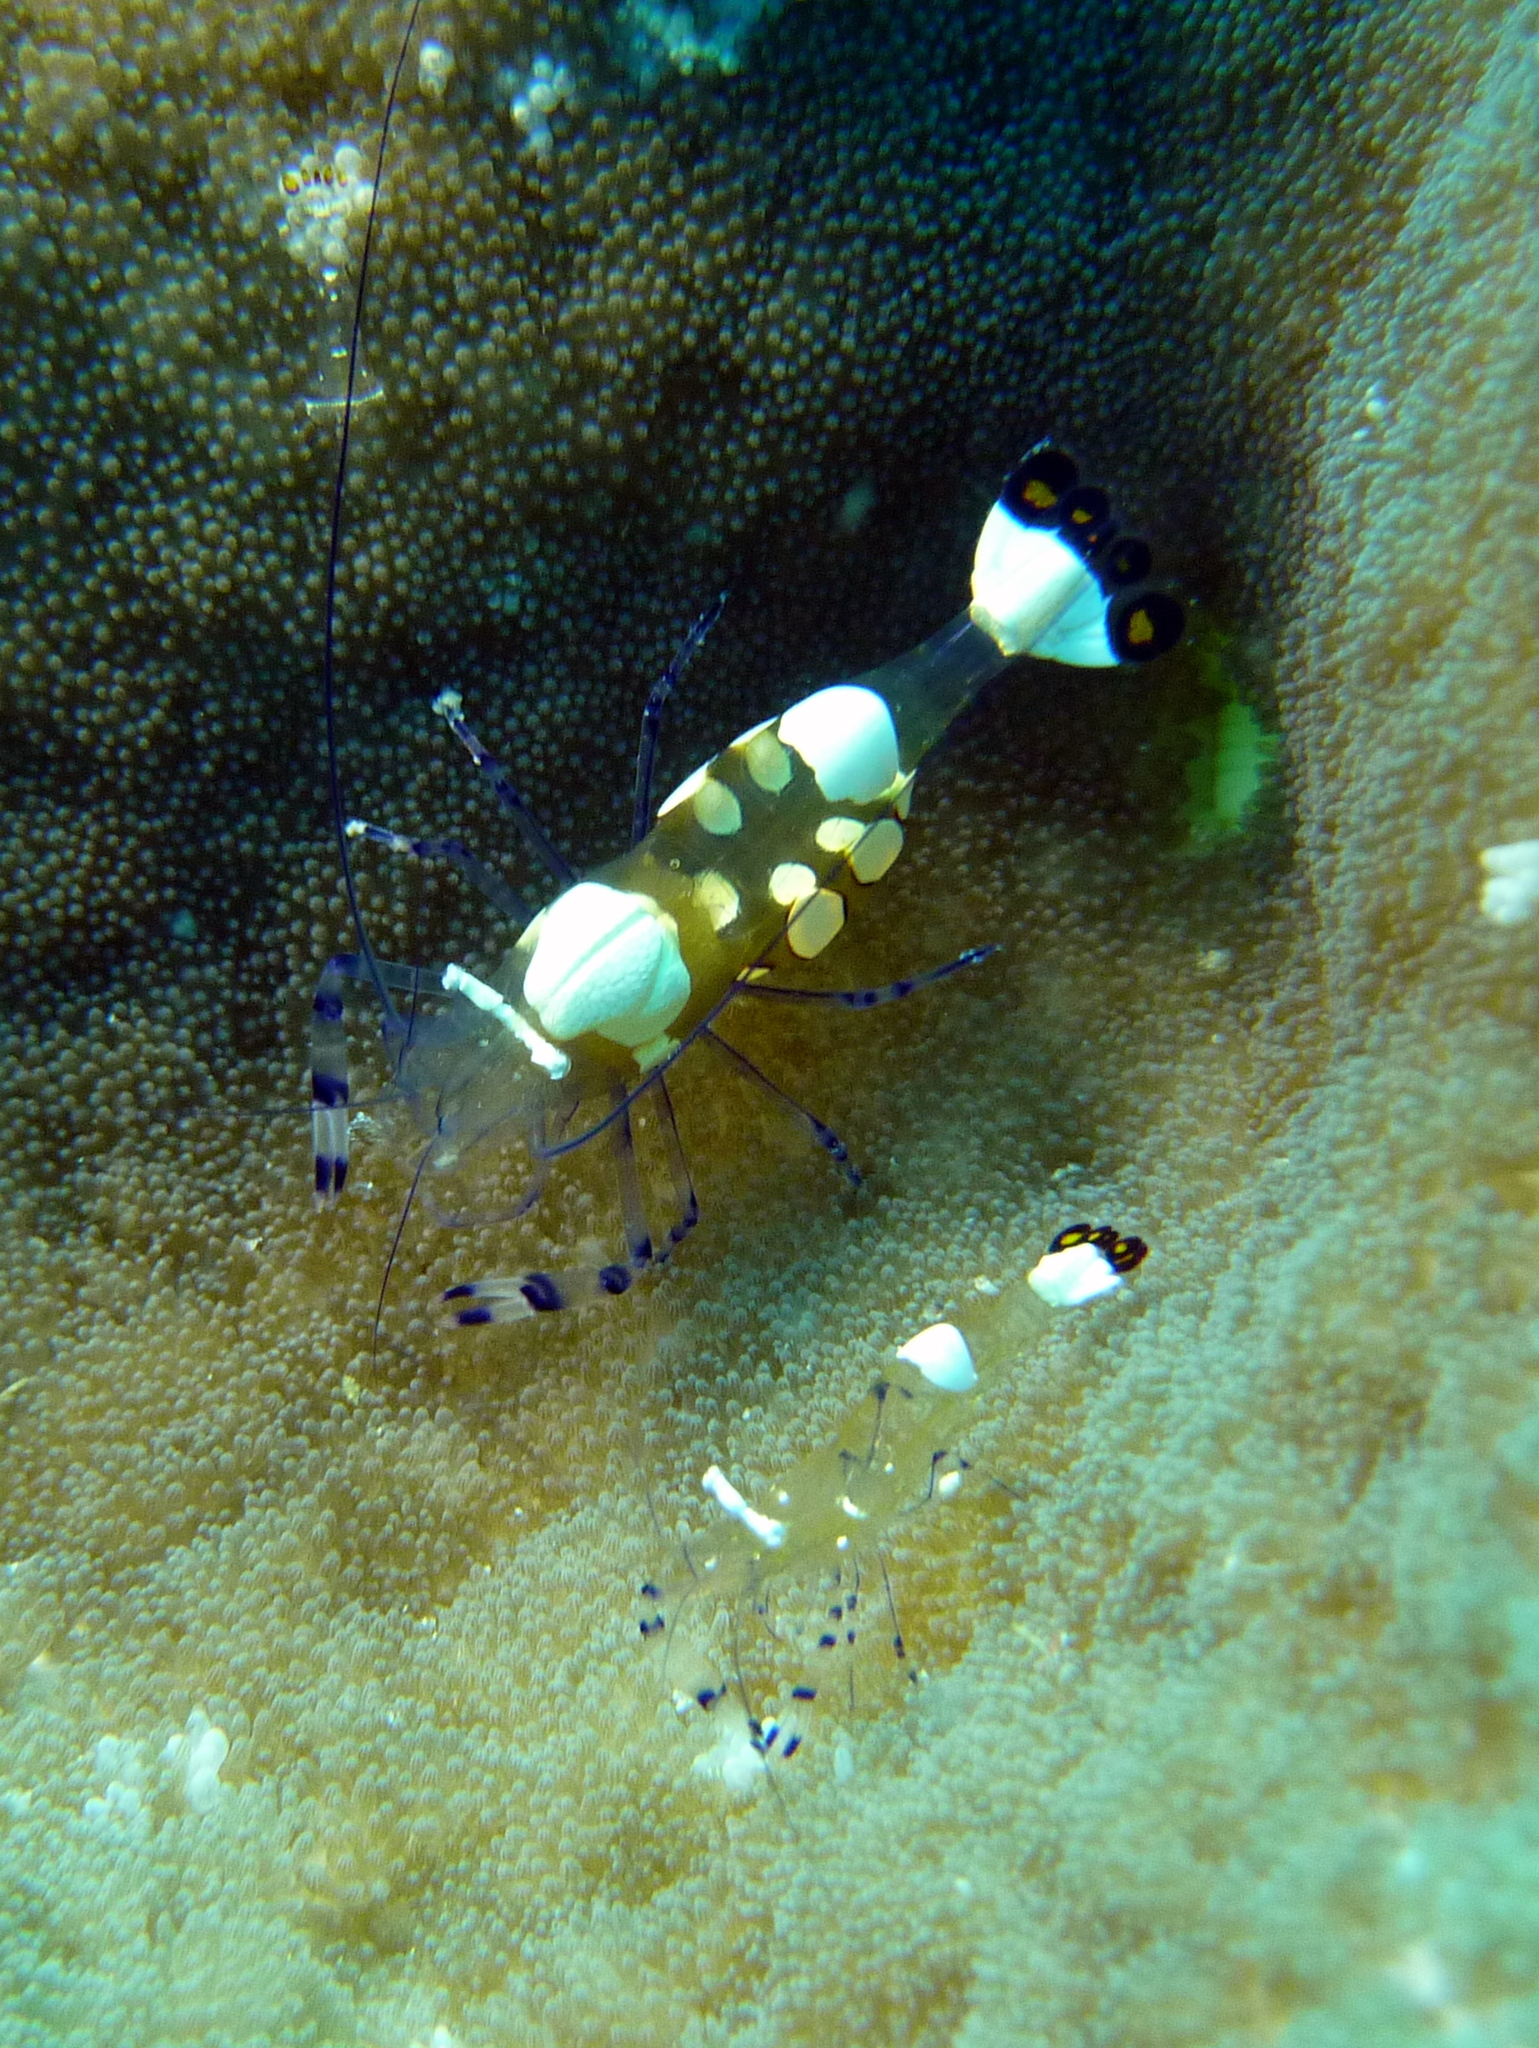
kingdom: Animalia
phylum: Arthropoda
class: Malacostraca
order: Decapoda
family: Palaemonidae
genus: Ancylocaris
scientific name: Ancylocaris brevicarpalis
